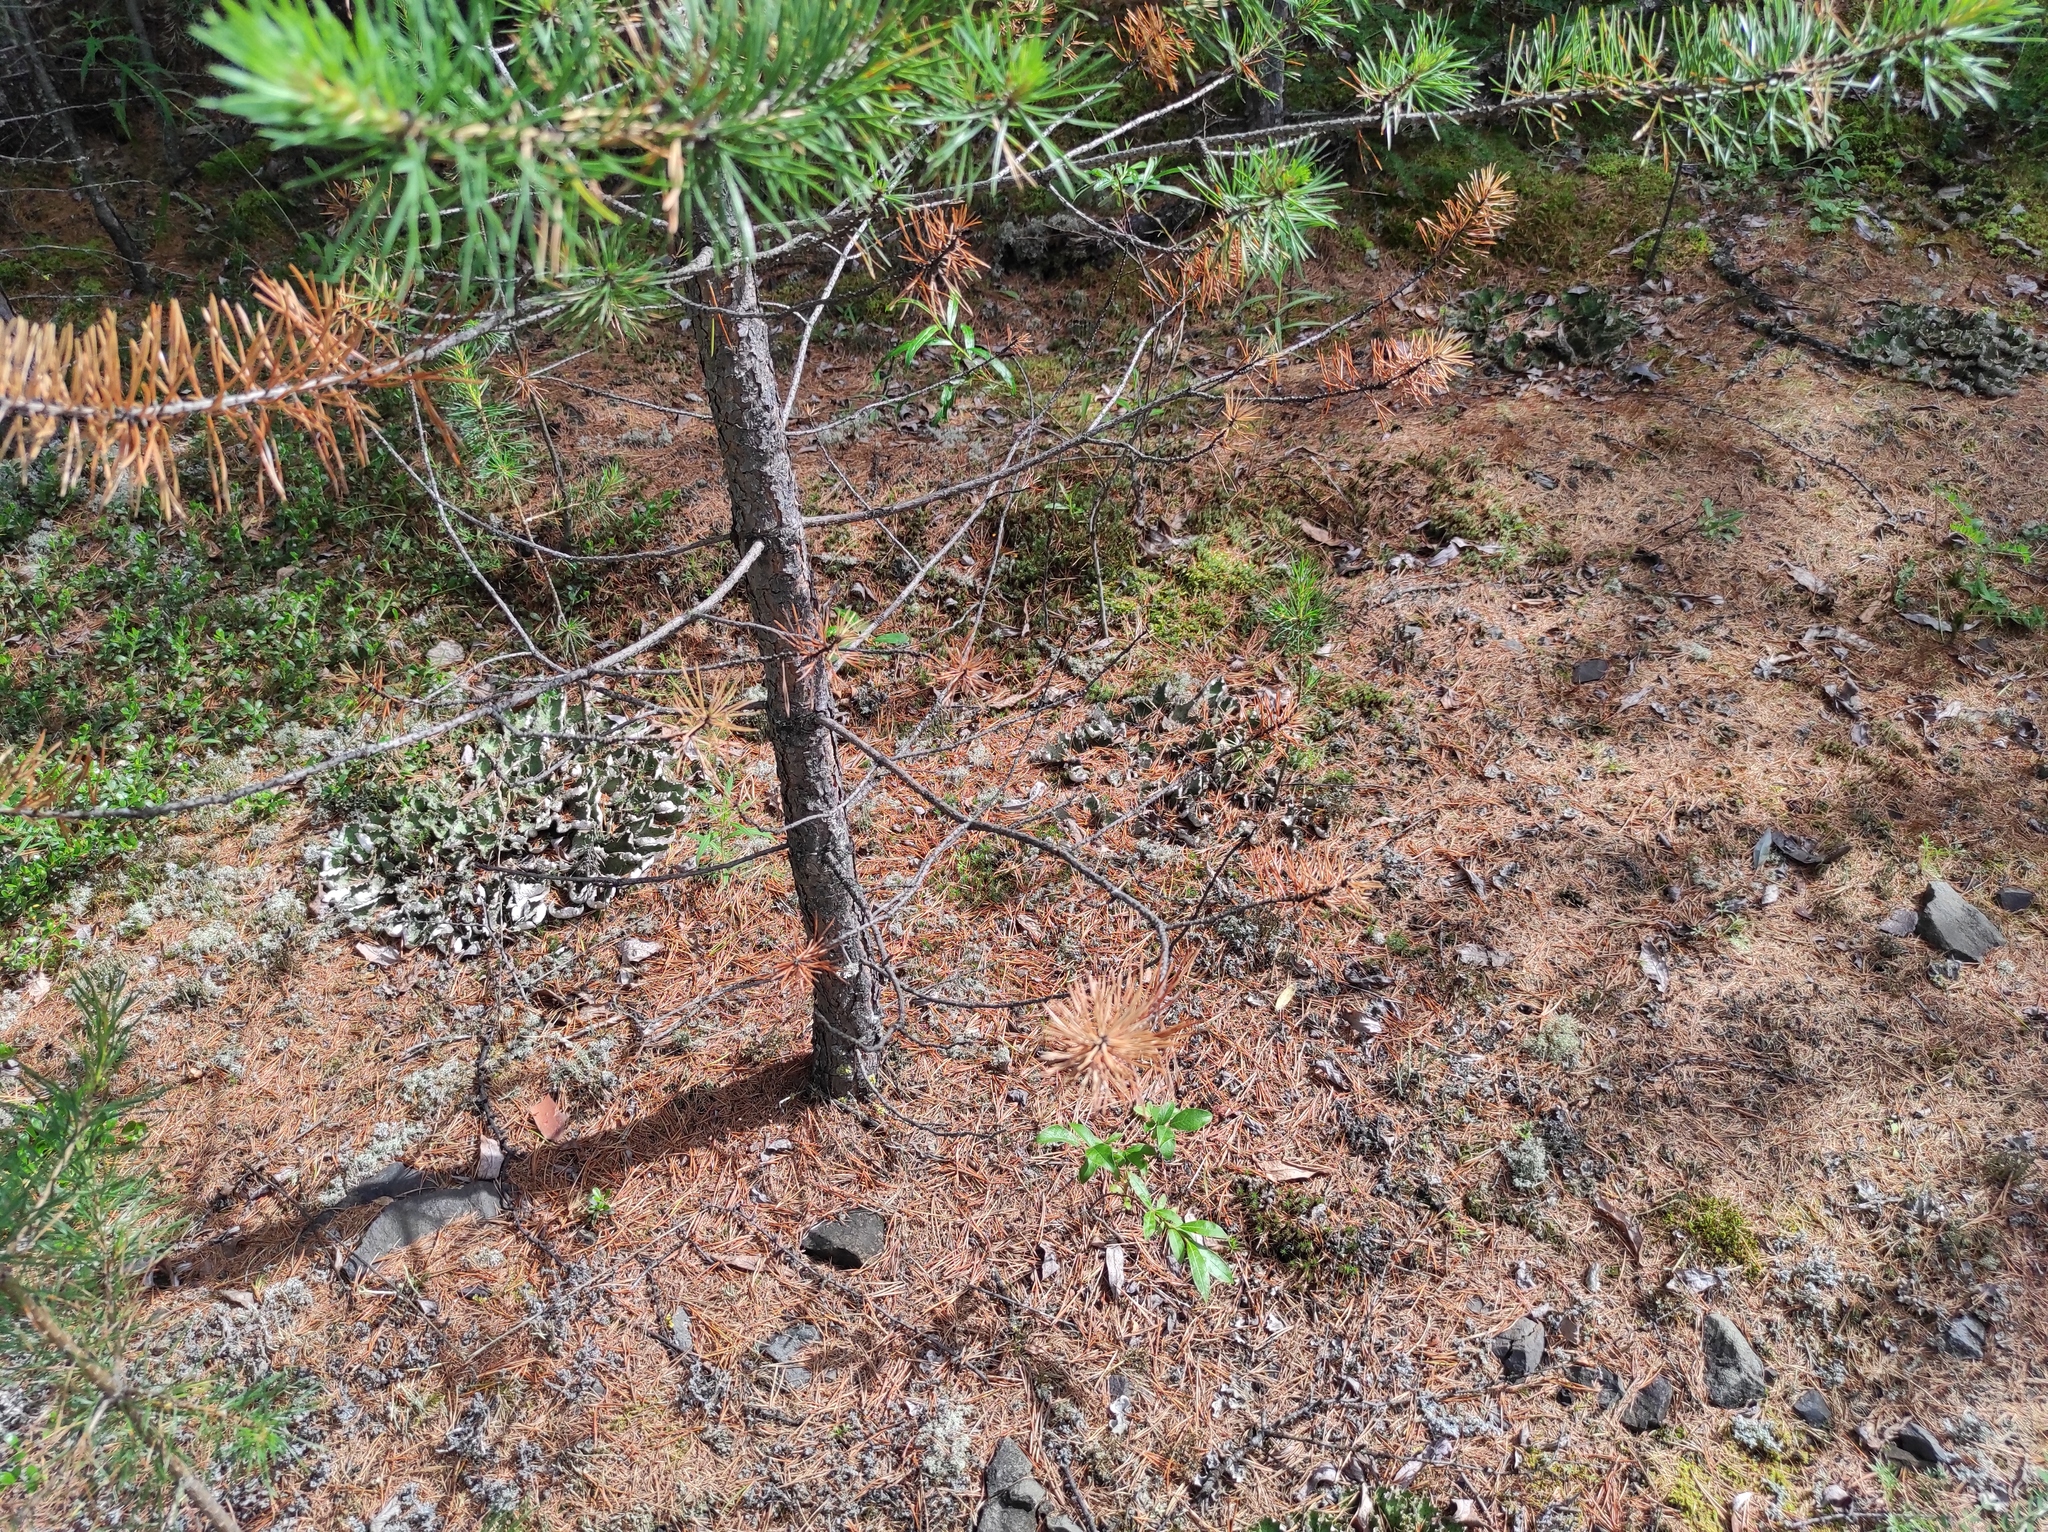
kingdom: Plantae
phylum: Tracheophyta
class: Pinopsida
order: Pinales
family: Pinaceae
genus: Pinus
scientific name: Pinus sylvestris
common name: Scots pine
